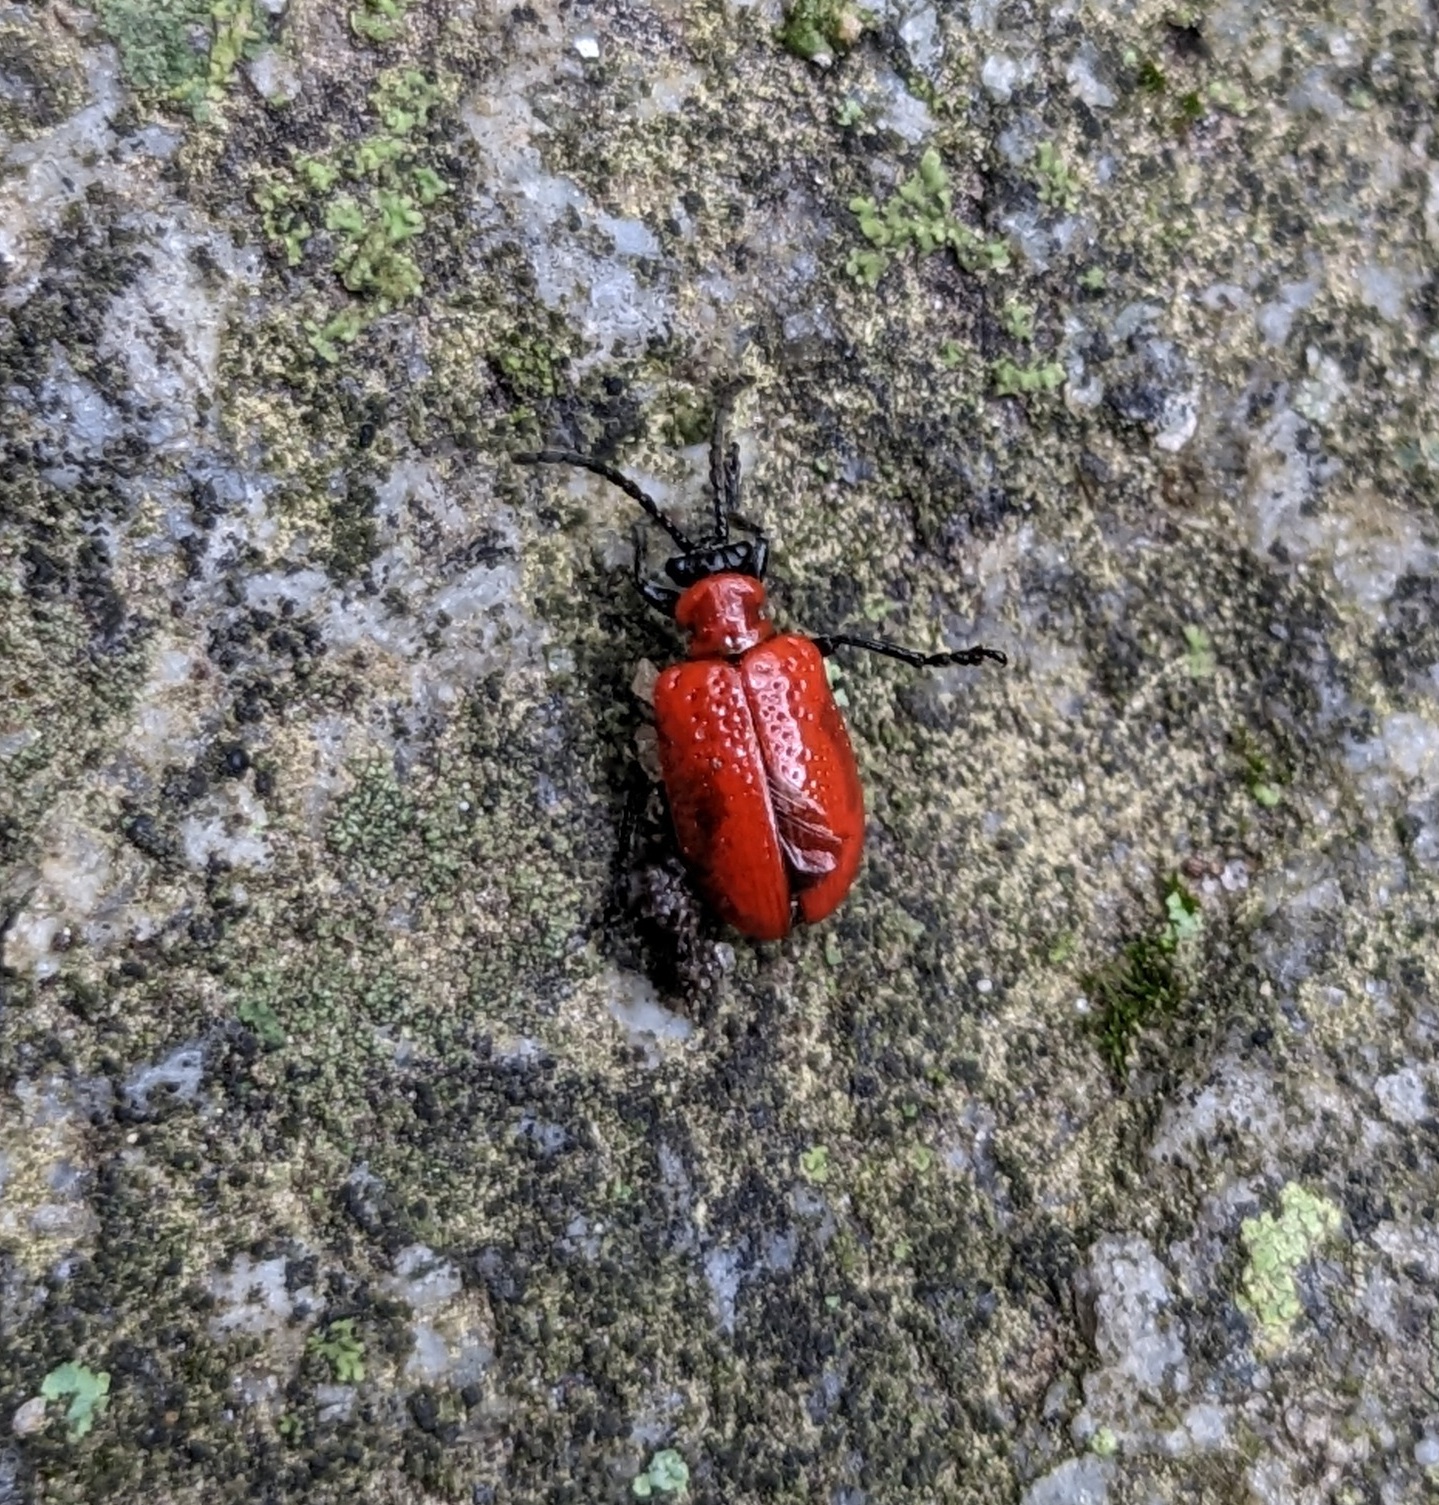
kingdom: Animalia
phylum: Arthropoda
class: Insecta
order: Coleoptera
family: Chrysomelidae
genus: Lilioceris
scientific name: Lilioceris lilii
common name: Lily beetle
